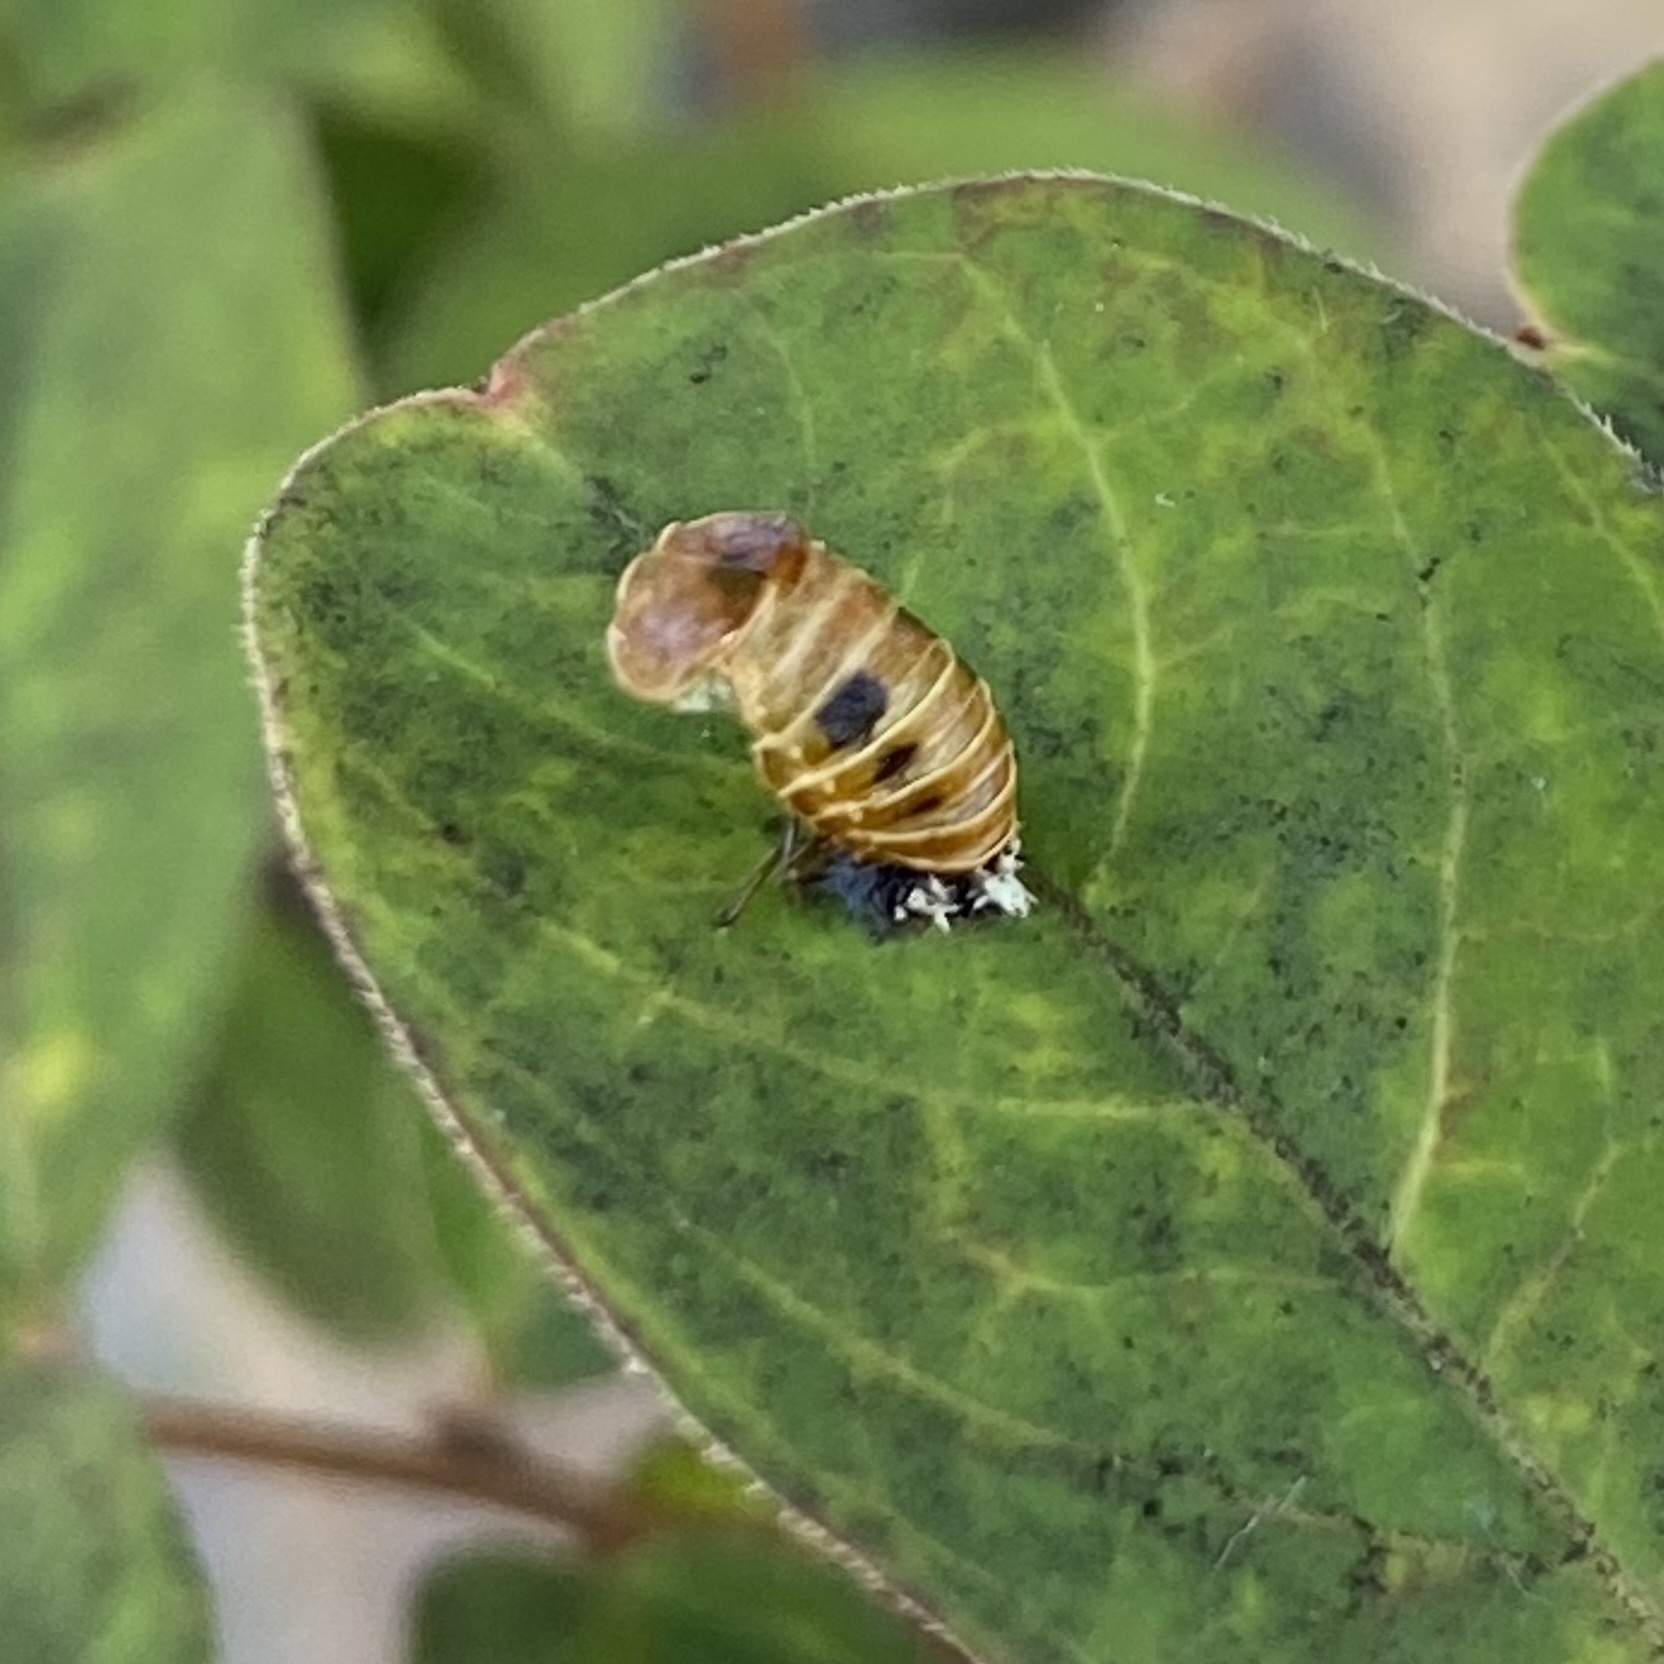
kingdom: Animalia
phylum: Arthropoda
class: Insecta
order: Coleoptera
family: Coccinellidae
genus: Harmonia
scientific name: Harmonia axyridis
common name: Harlequin ladybird
